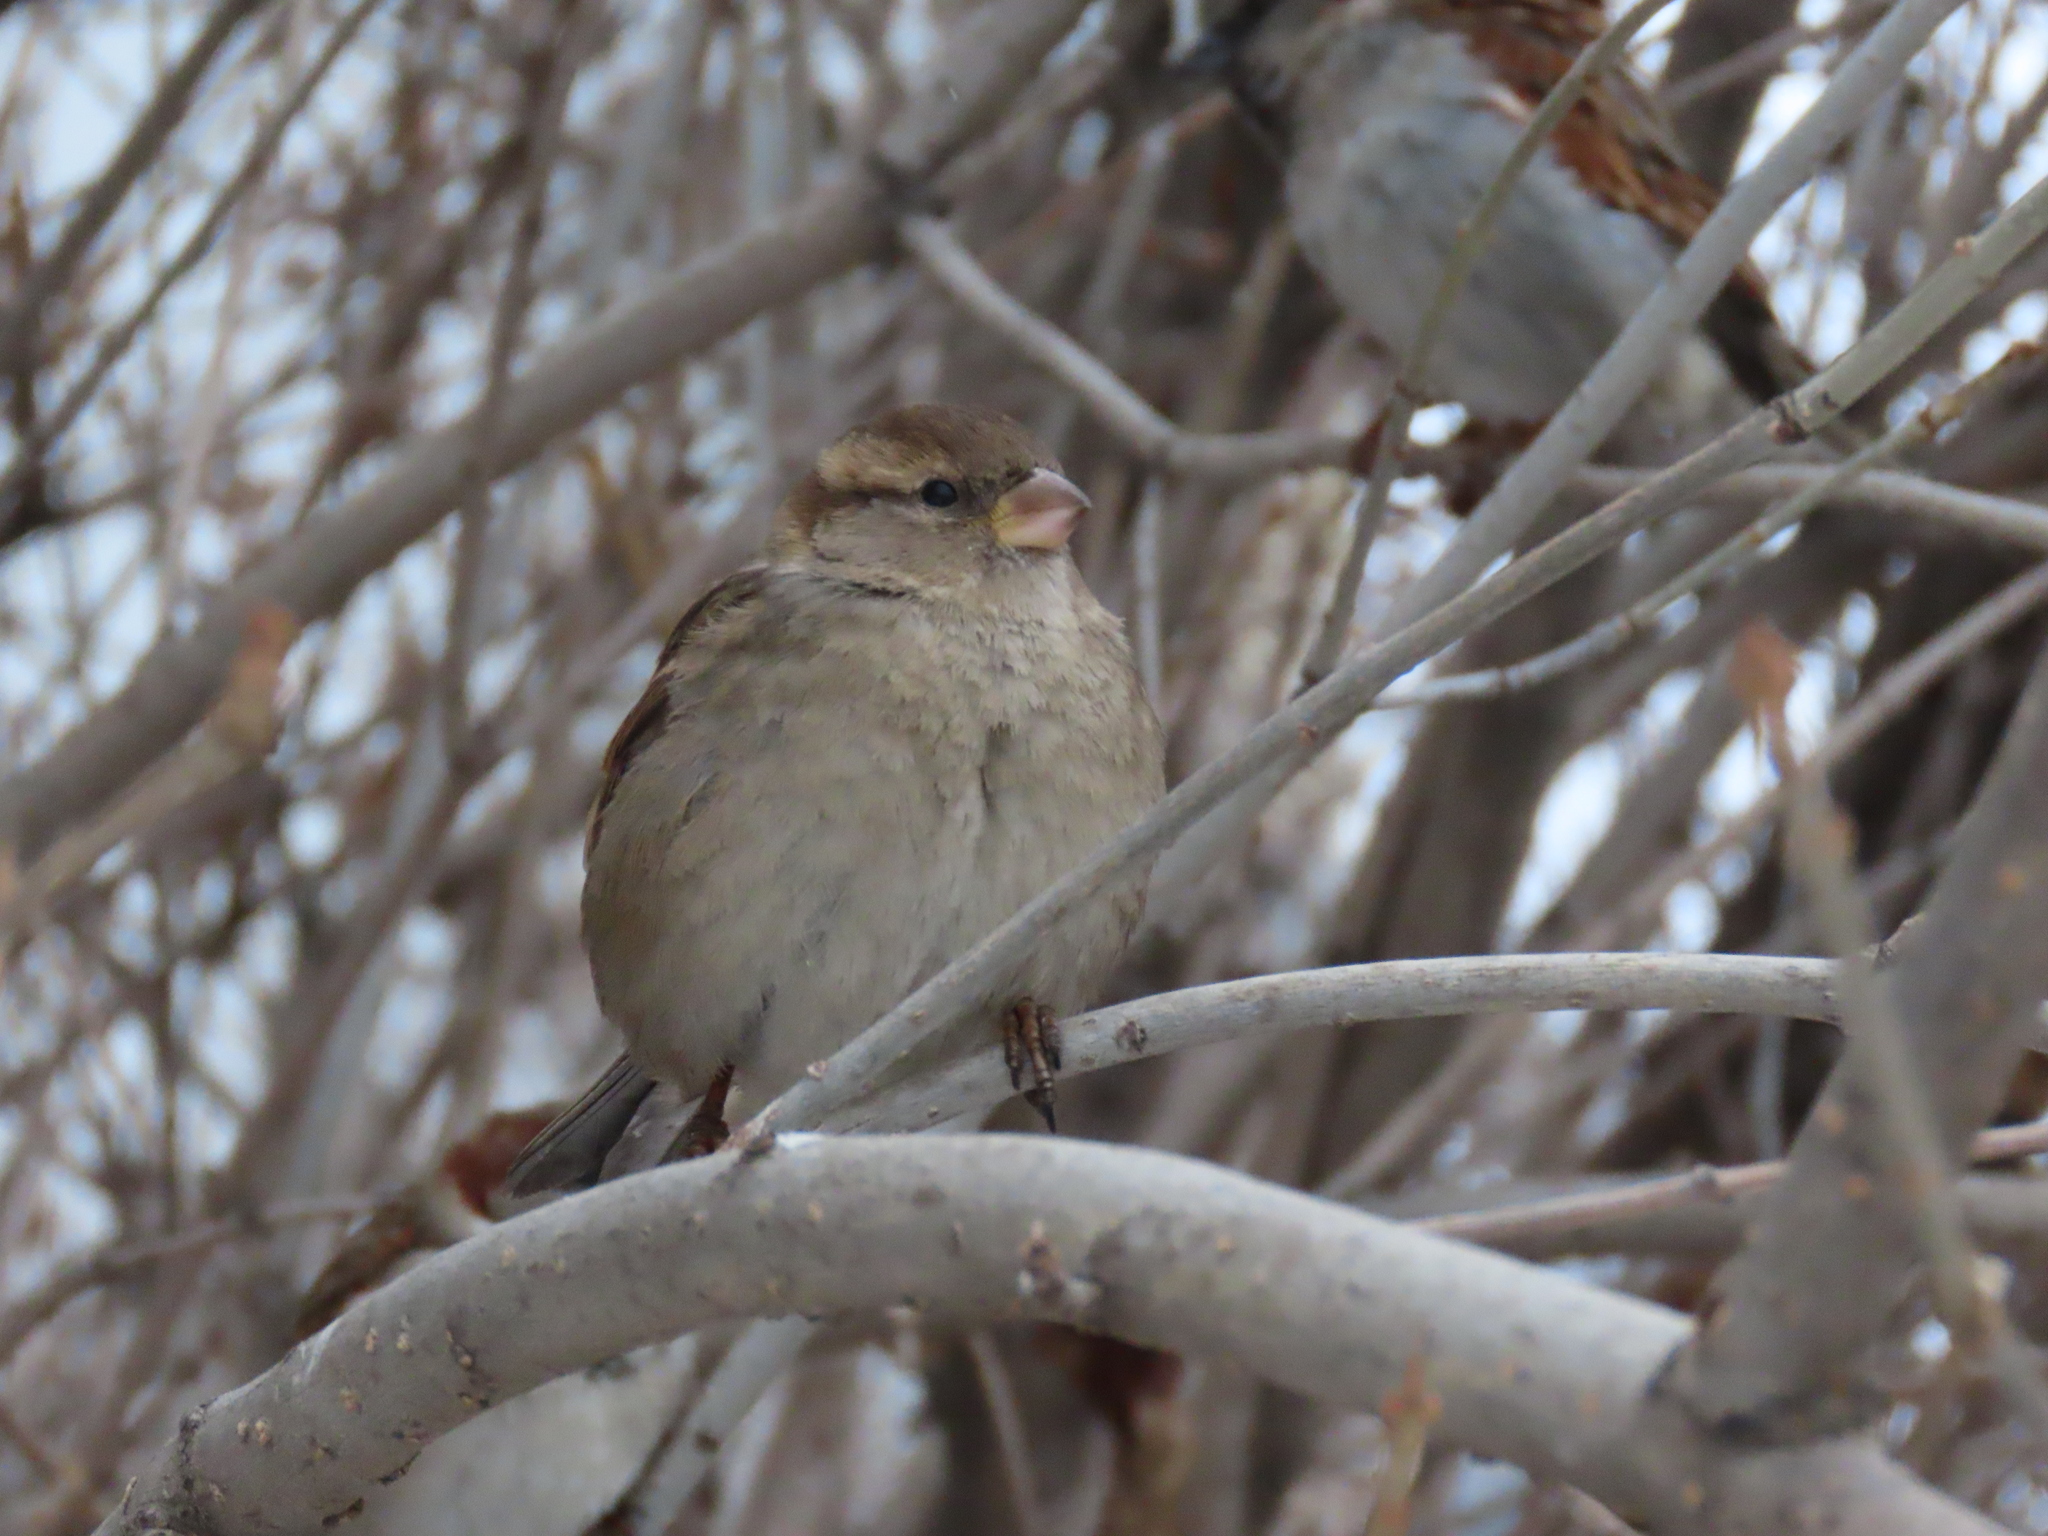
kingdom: Animalia
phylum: Chordata
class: Aves
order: Passeriformes
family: Passeridae
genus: Passer
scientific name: Passer domesticus
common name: House sparrow
